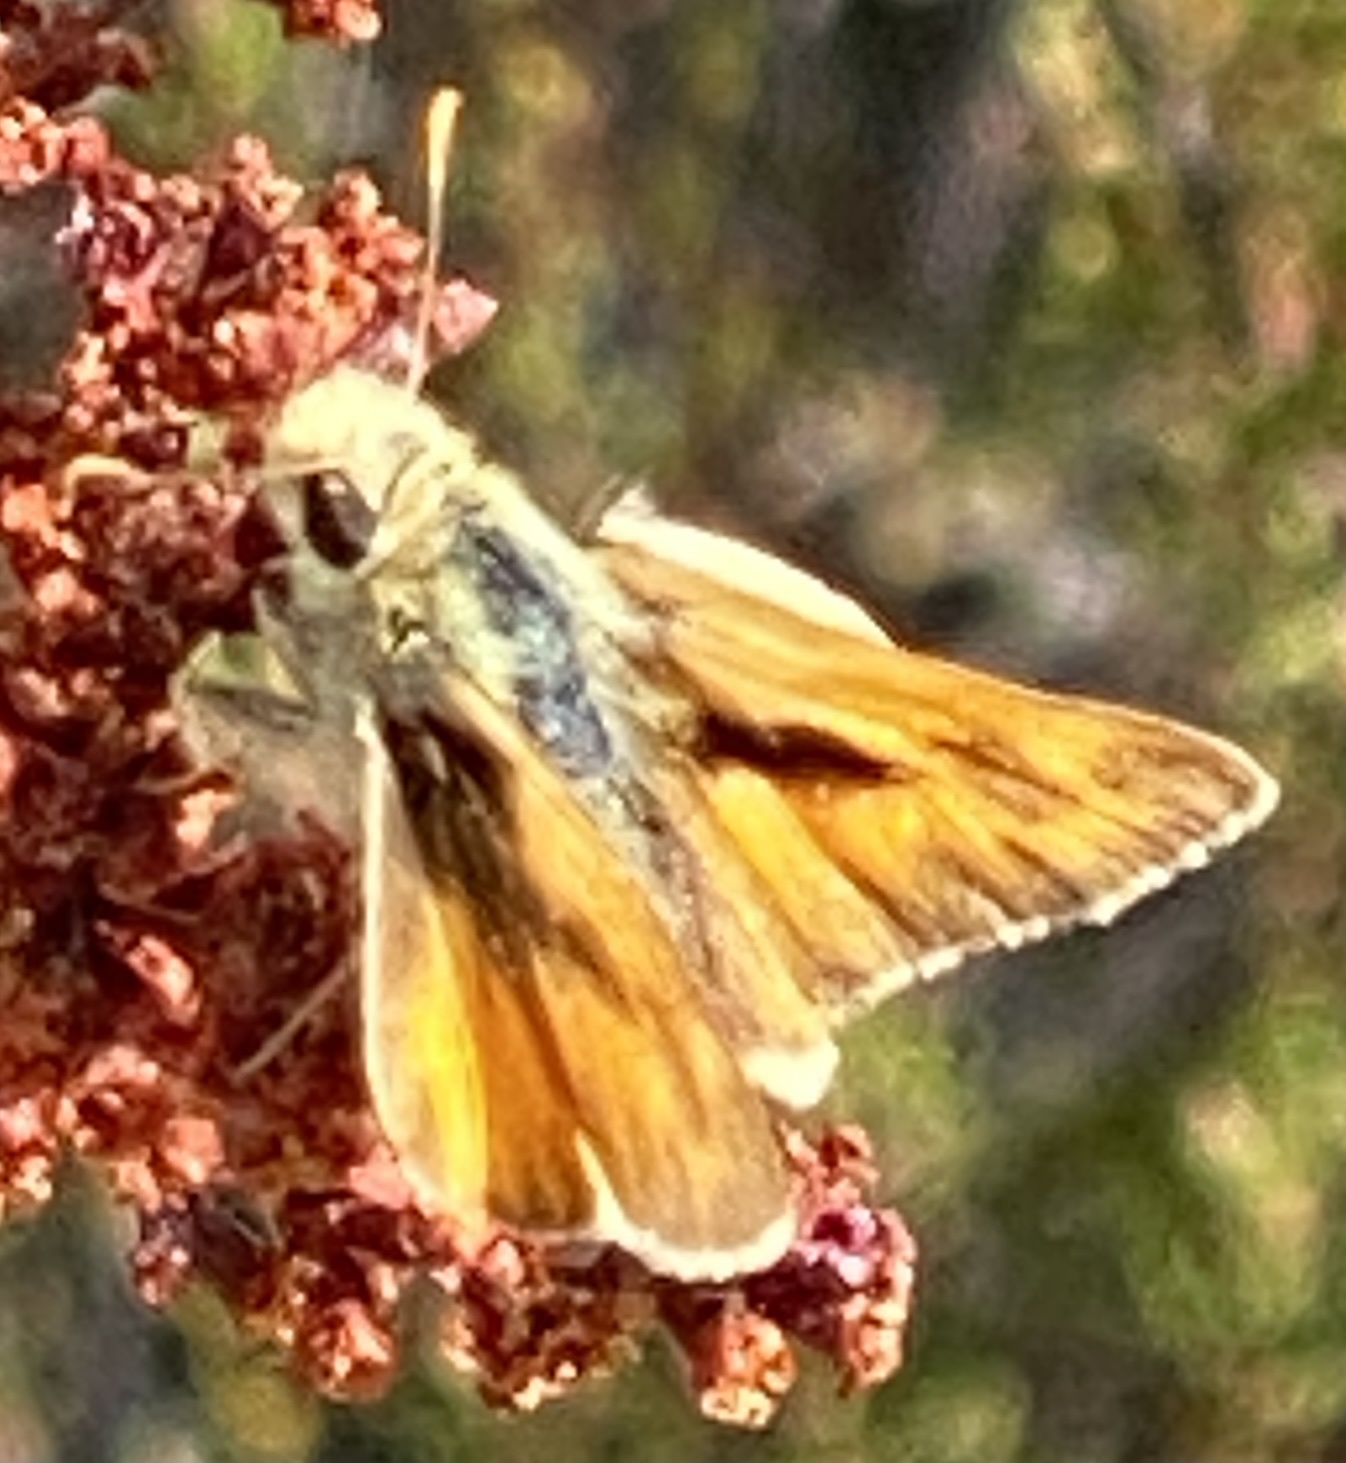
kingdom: Animalia
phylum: Arthropoda
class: Insecta
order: Lepidoptera
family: Hesperiidae
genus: Ochlodes
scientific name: Ochlodes sylvanoides
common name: Woodland skipper
